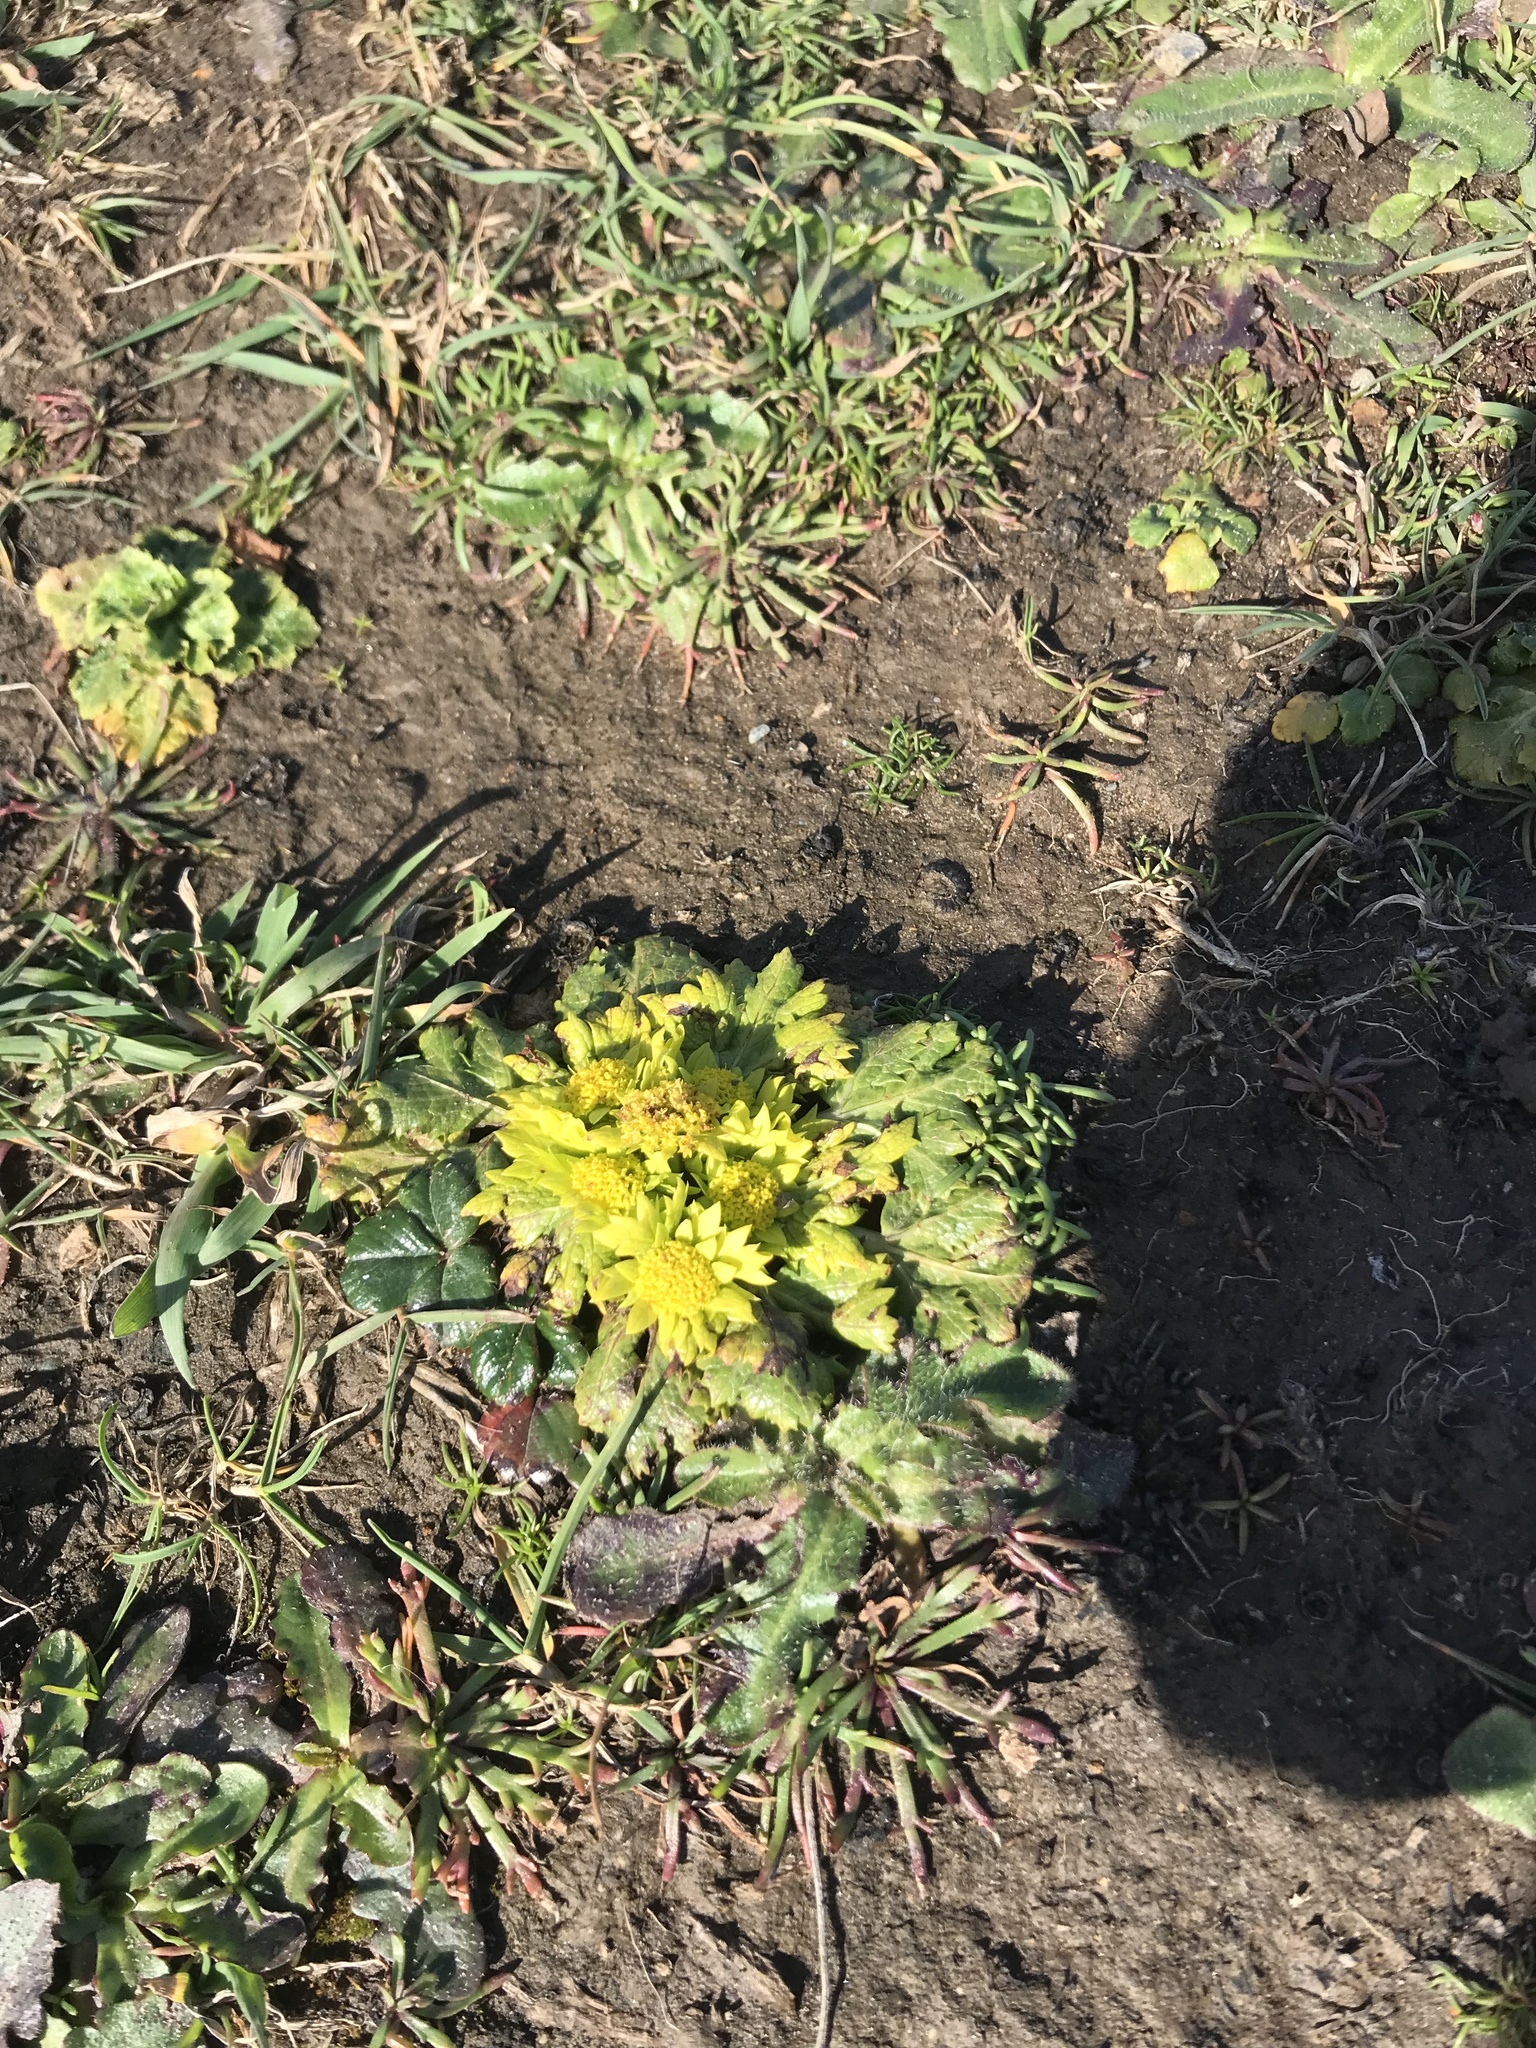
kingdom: Plantae
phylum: Tracheophyta
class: Magnoliopsida
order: Apiales
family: Apiaceae
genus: Sanicula
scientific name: Sanicula arctopoides
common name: Footsteps-of-spring
